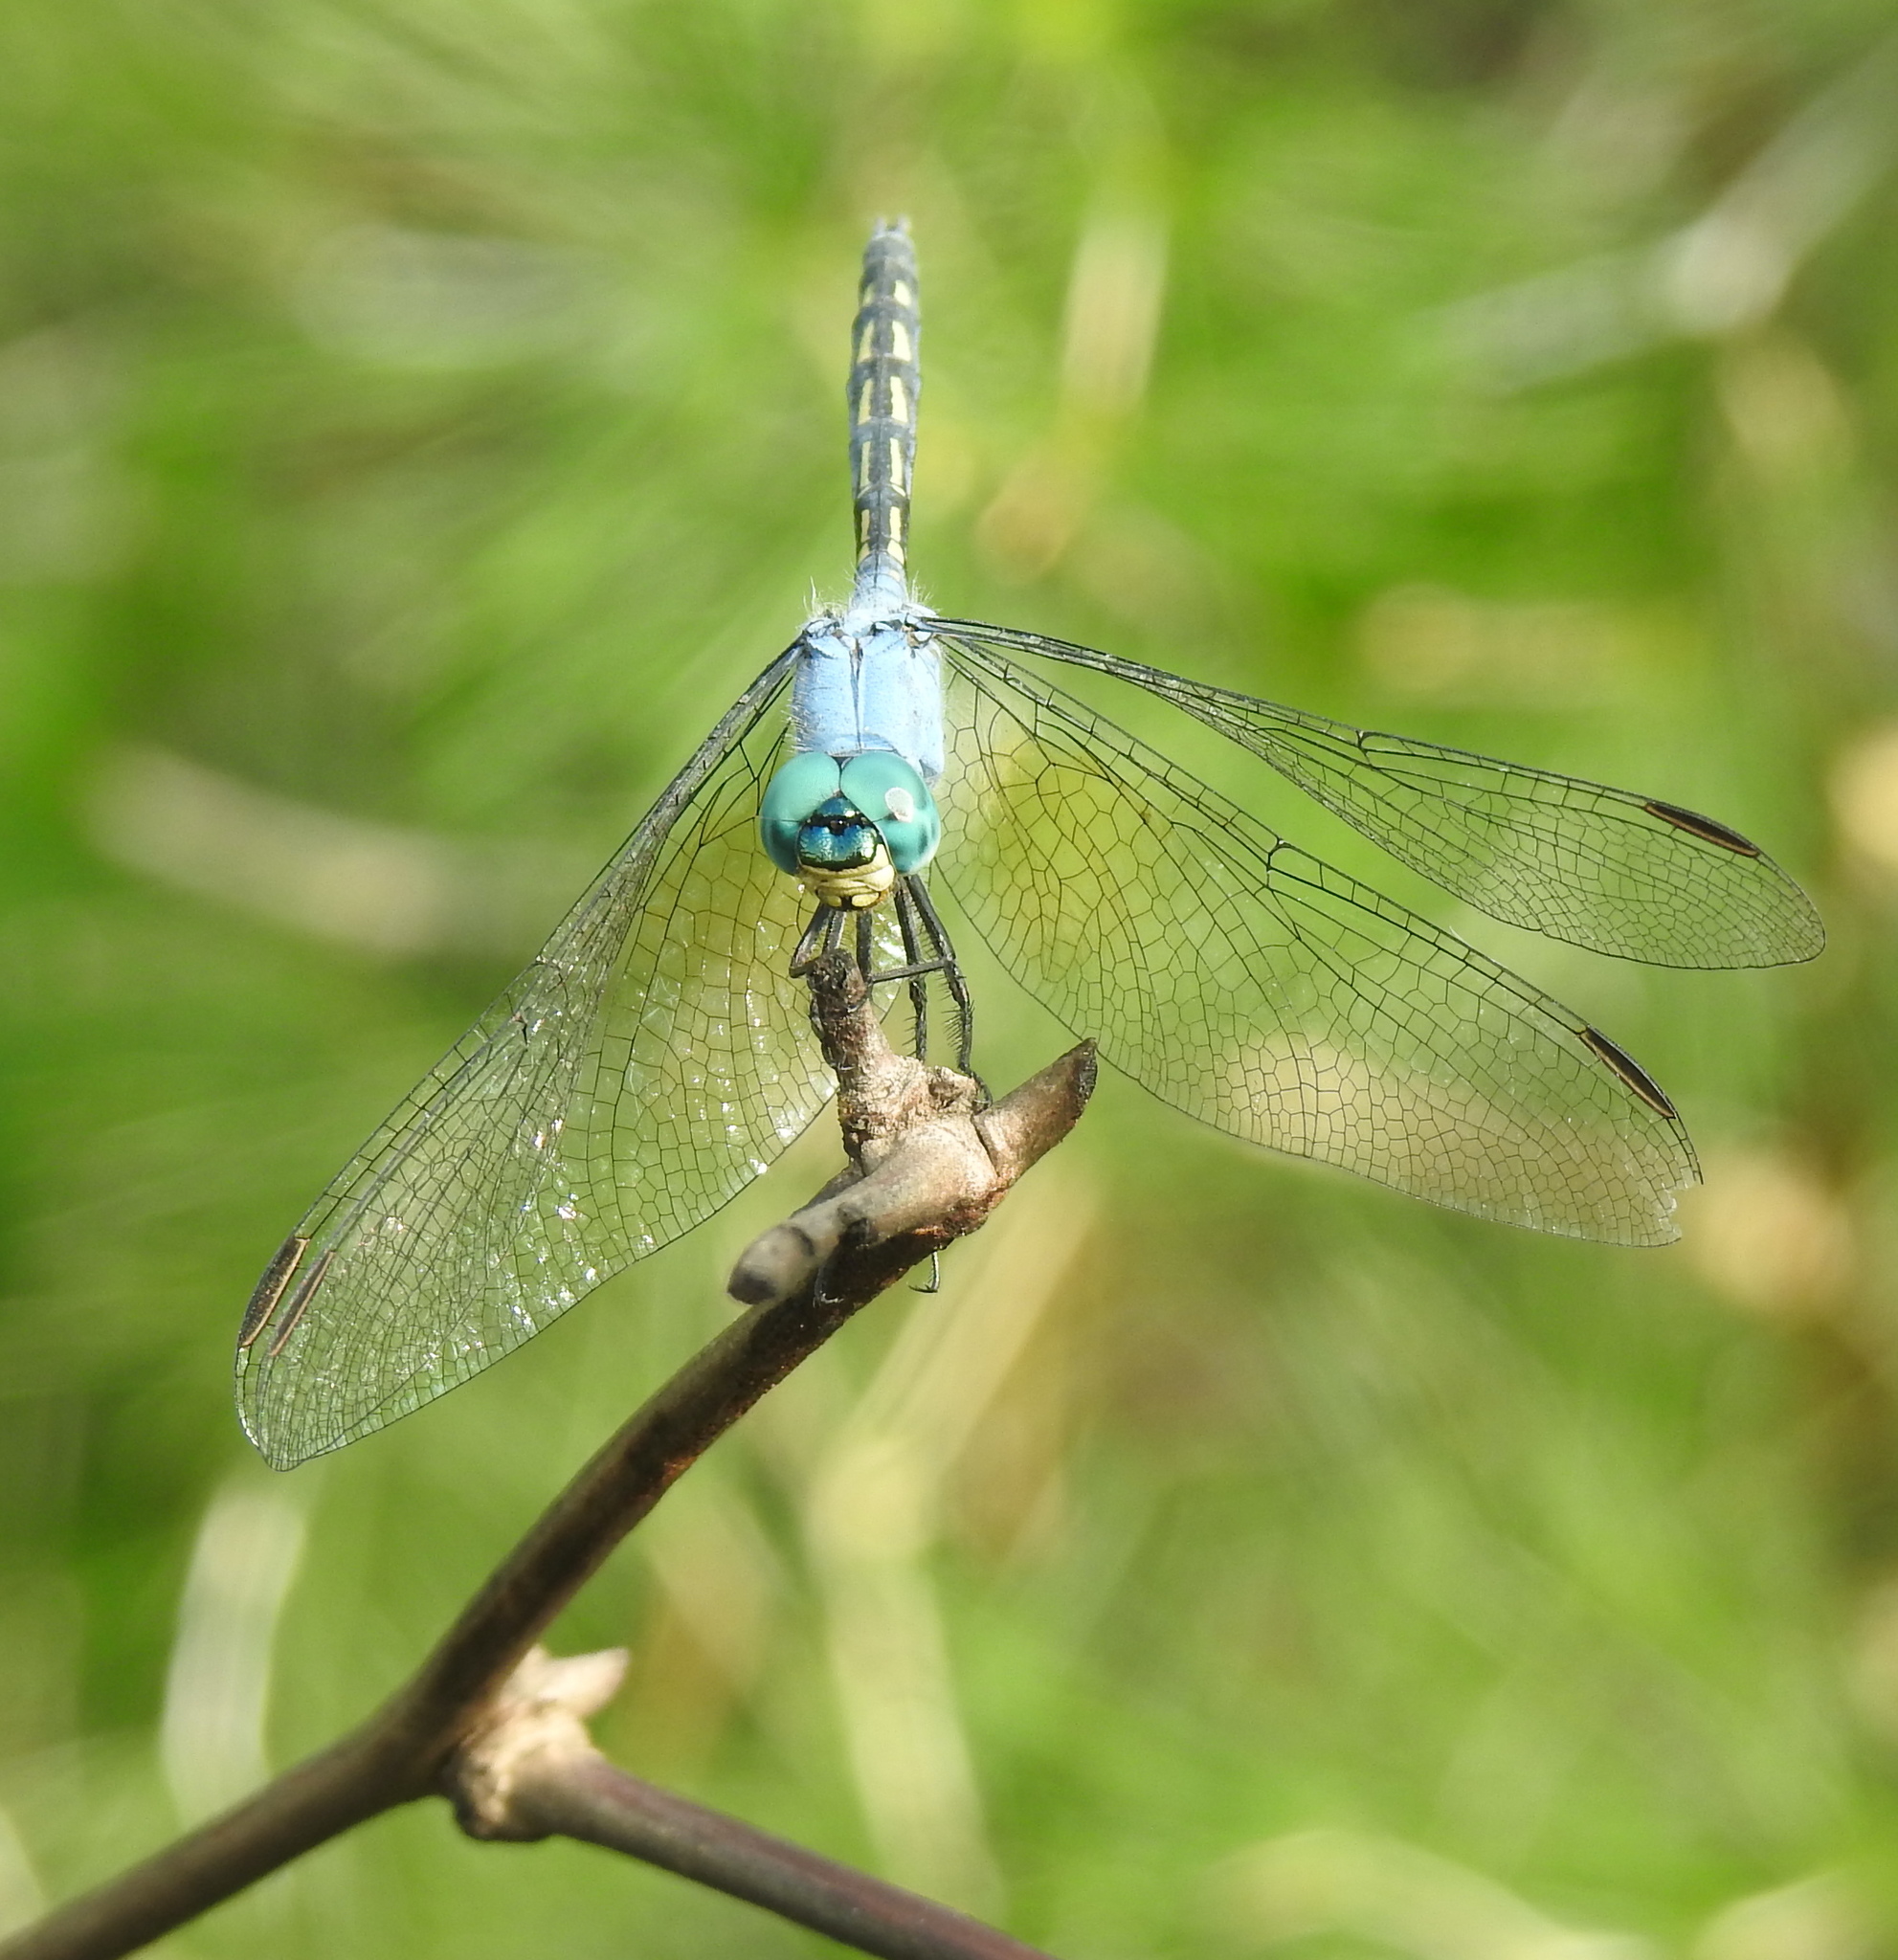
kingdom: Animalia
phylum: Arthropoda
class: Insecta
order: Odonata
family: Libellulidae
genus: Trithemis
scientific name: Trithemis stictica
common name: Jaunty dropwing
